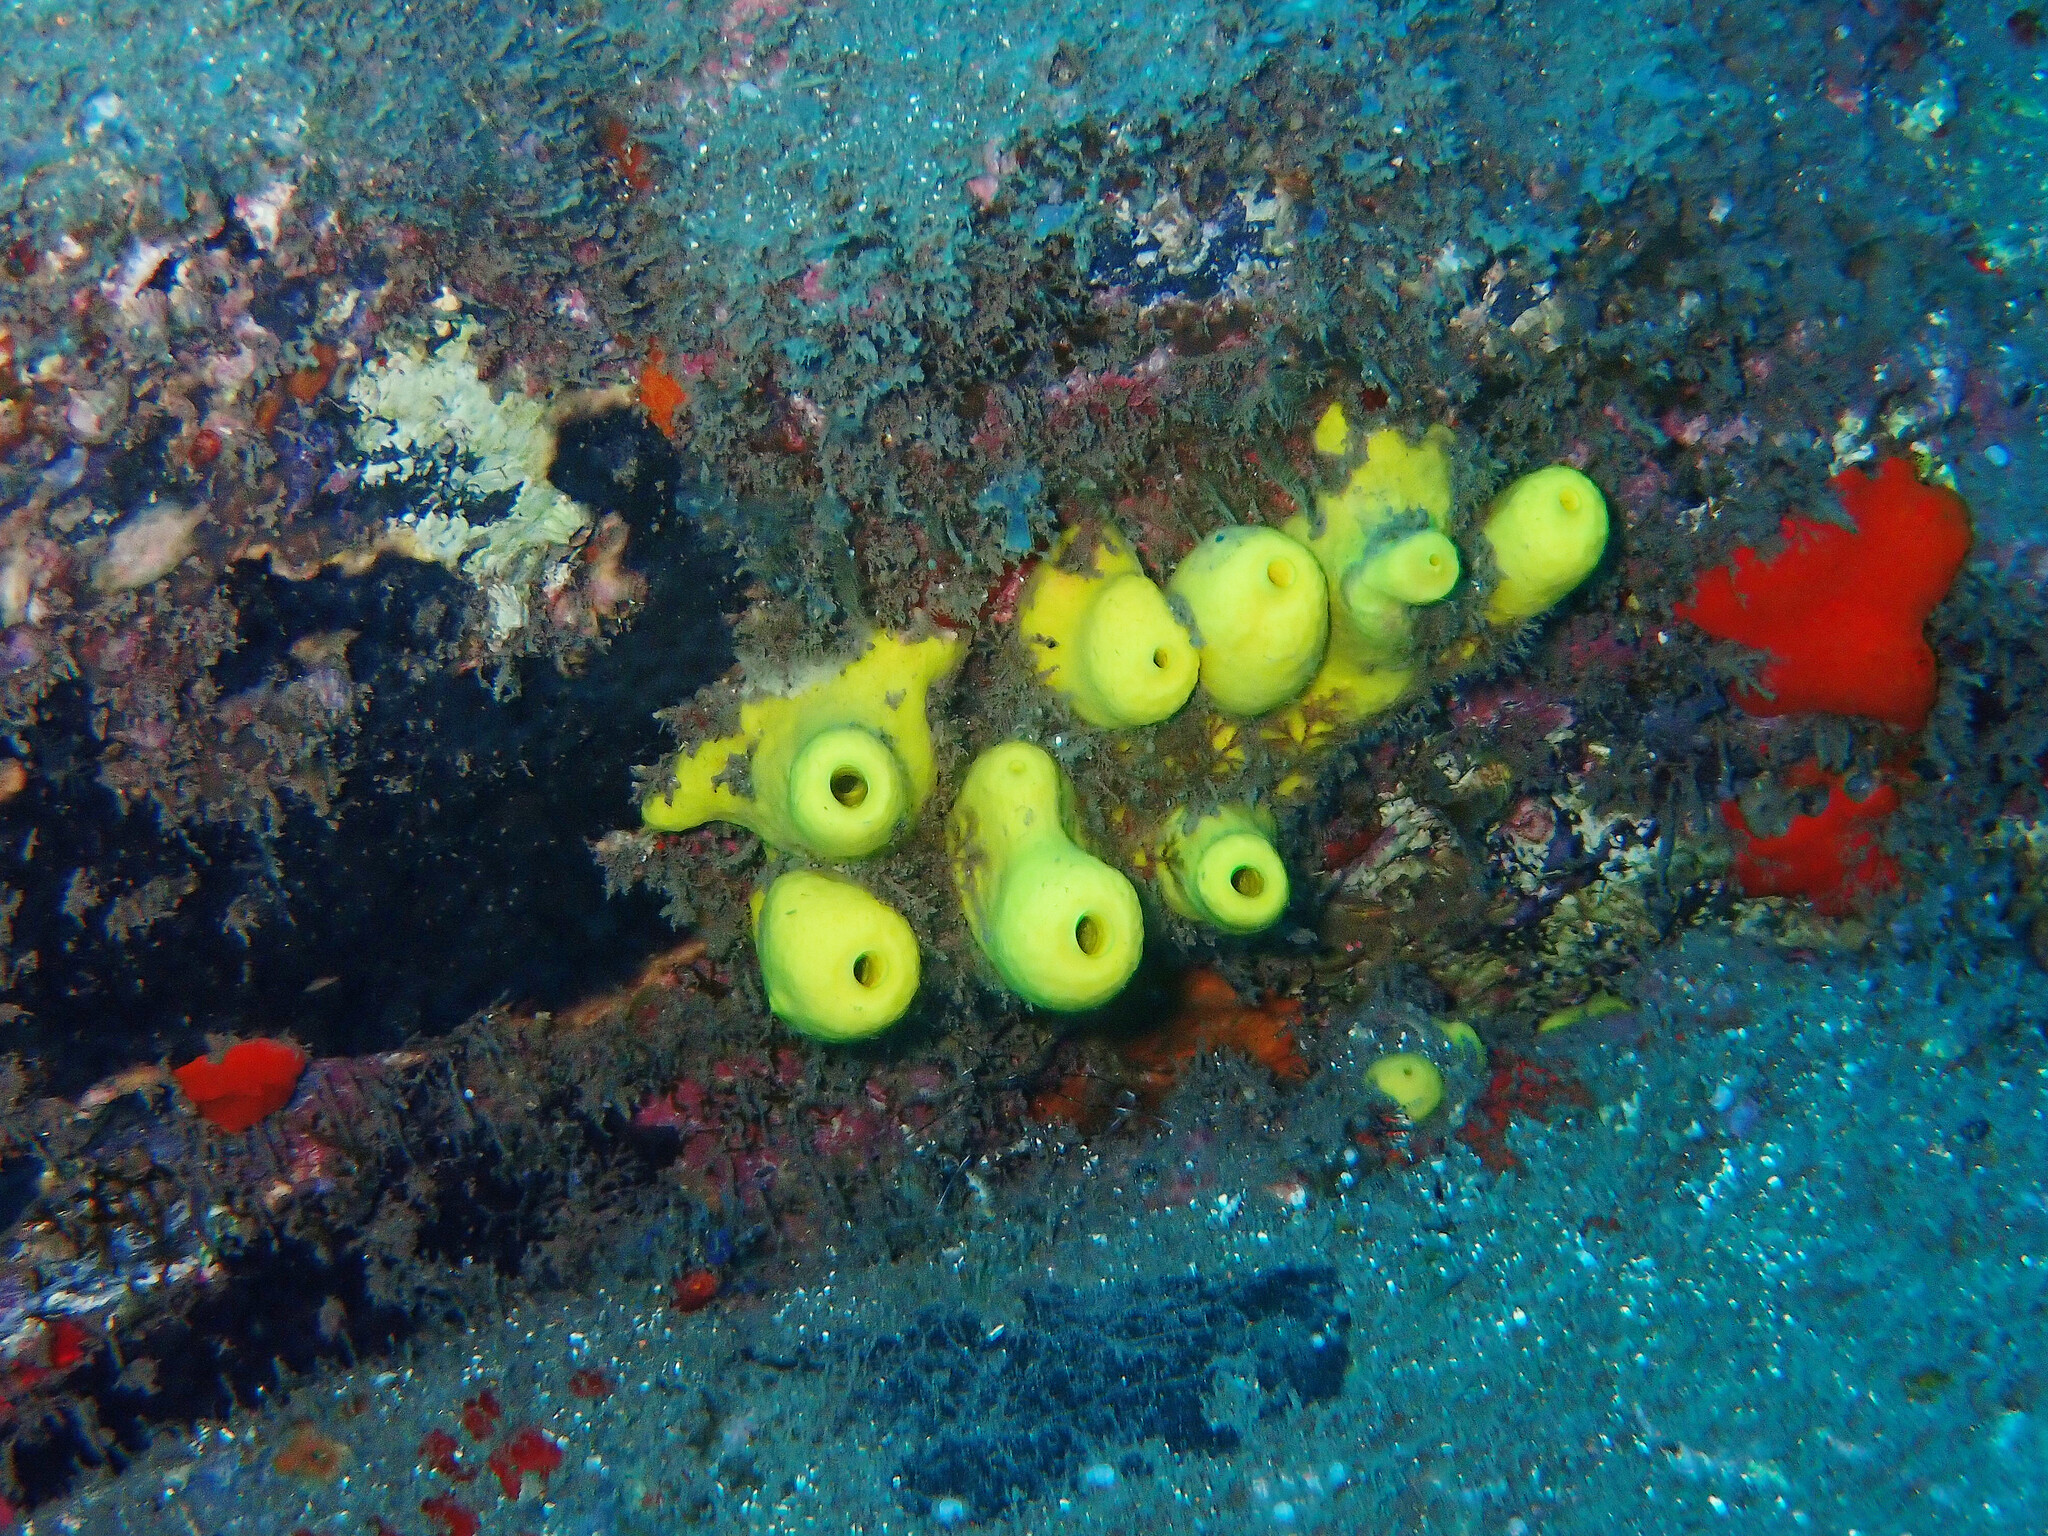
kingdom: Animalia
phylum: Porifera
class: Demospongiae
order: Verongiida
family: Aplysinidae
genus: Aplysina
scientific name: Aplysina aerophoba
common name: Aureate sponge
